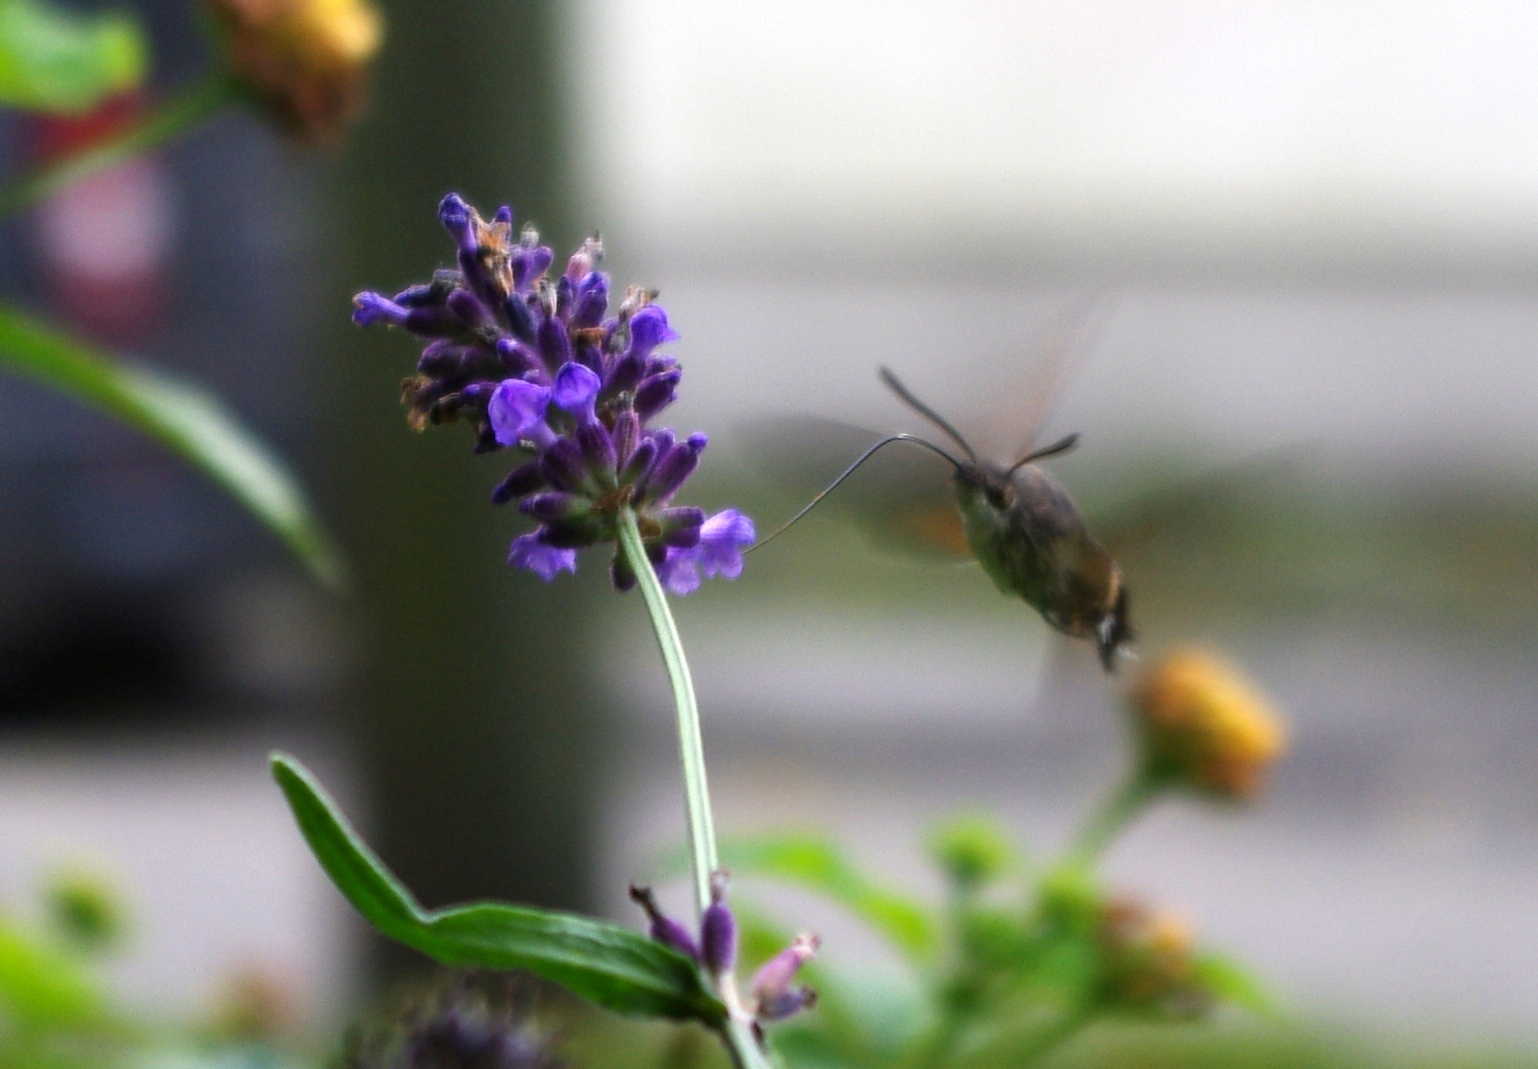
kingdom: Animalia
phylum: Arthropoda
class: Insecta
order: Lepidoptera
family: Sphingidae
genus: Macroglossum
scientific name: Macroglossum stellatarum
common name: Humming-bird hawk-moth
